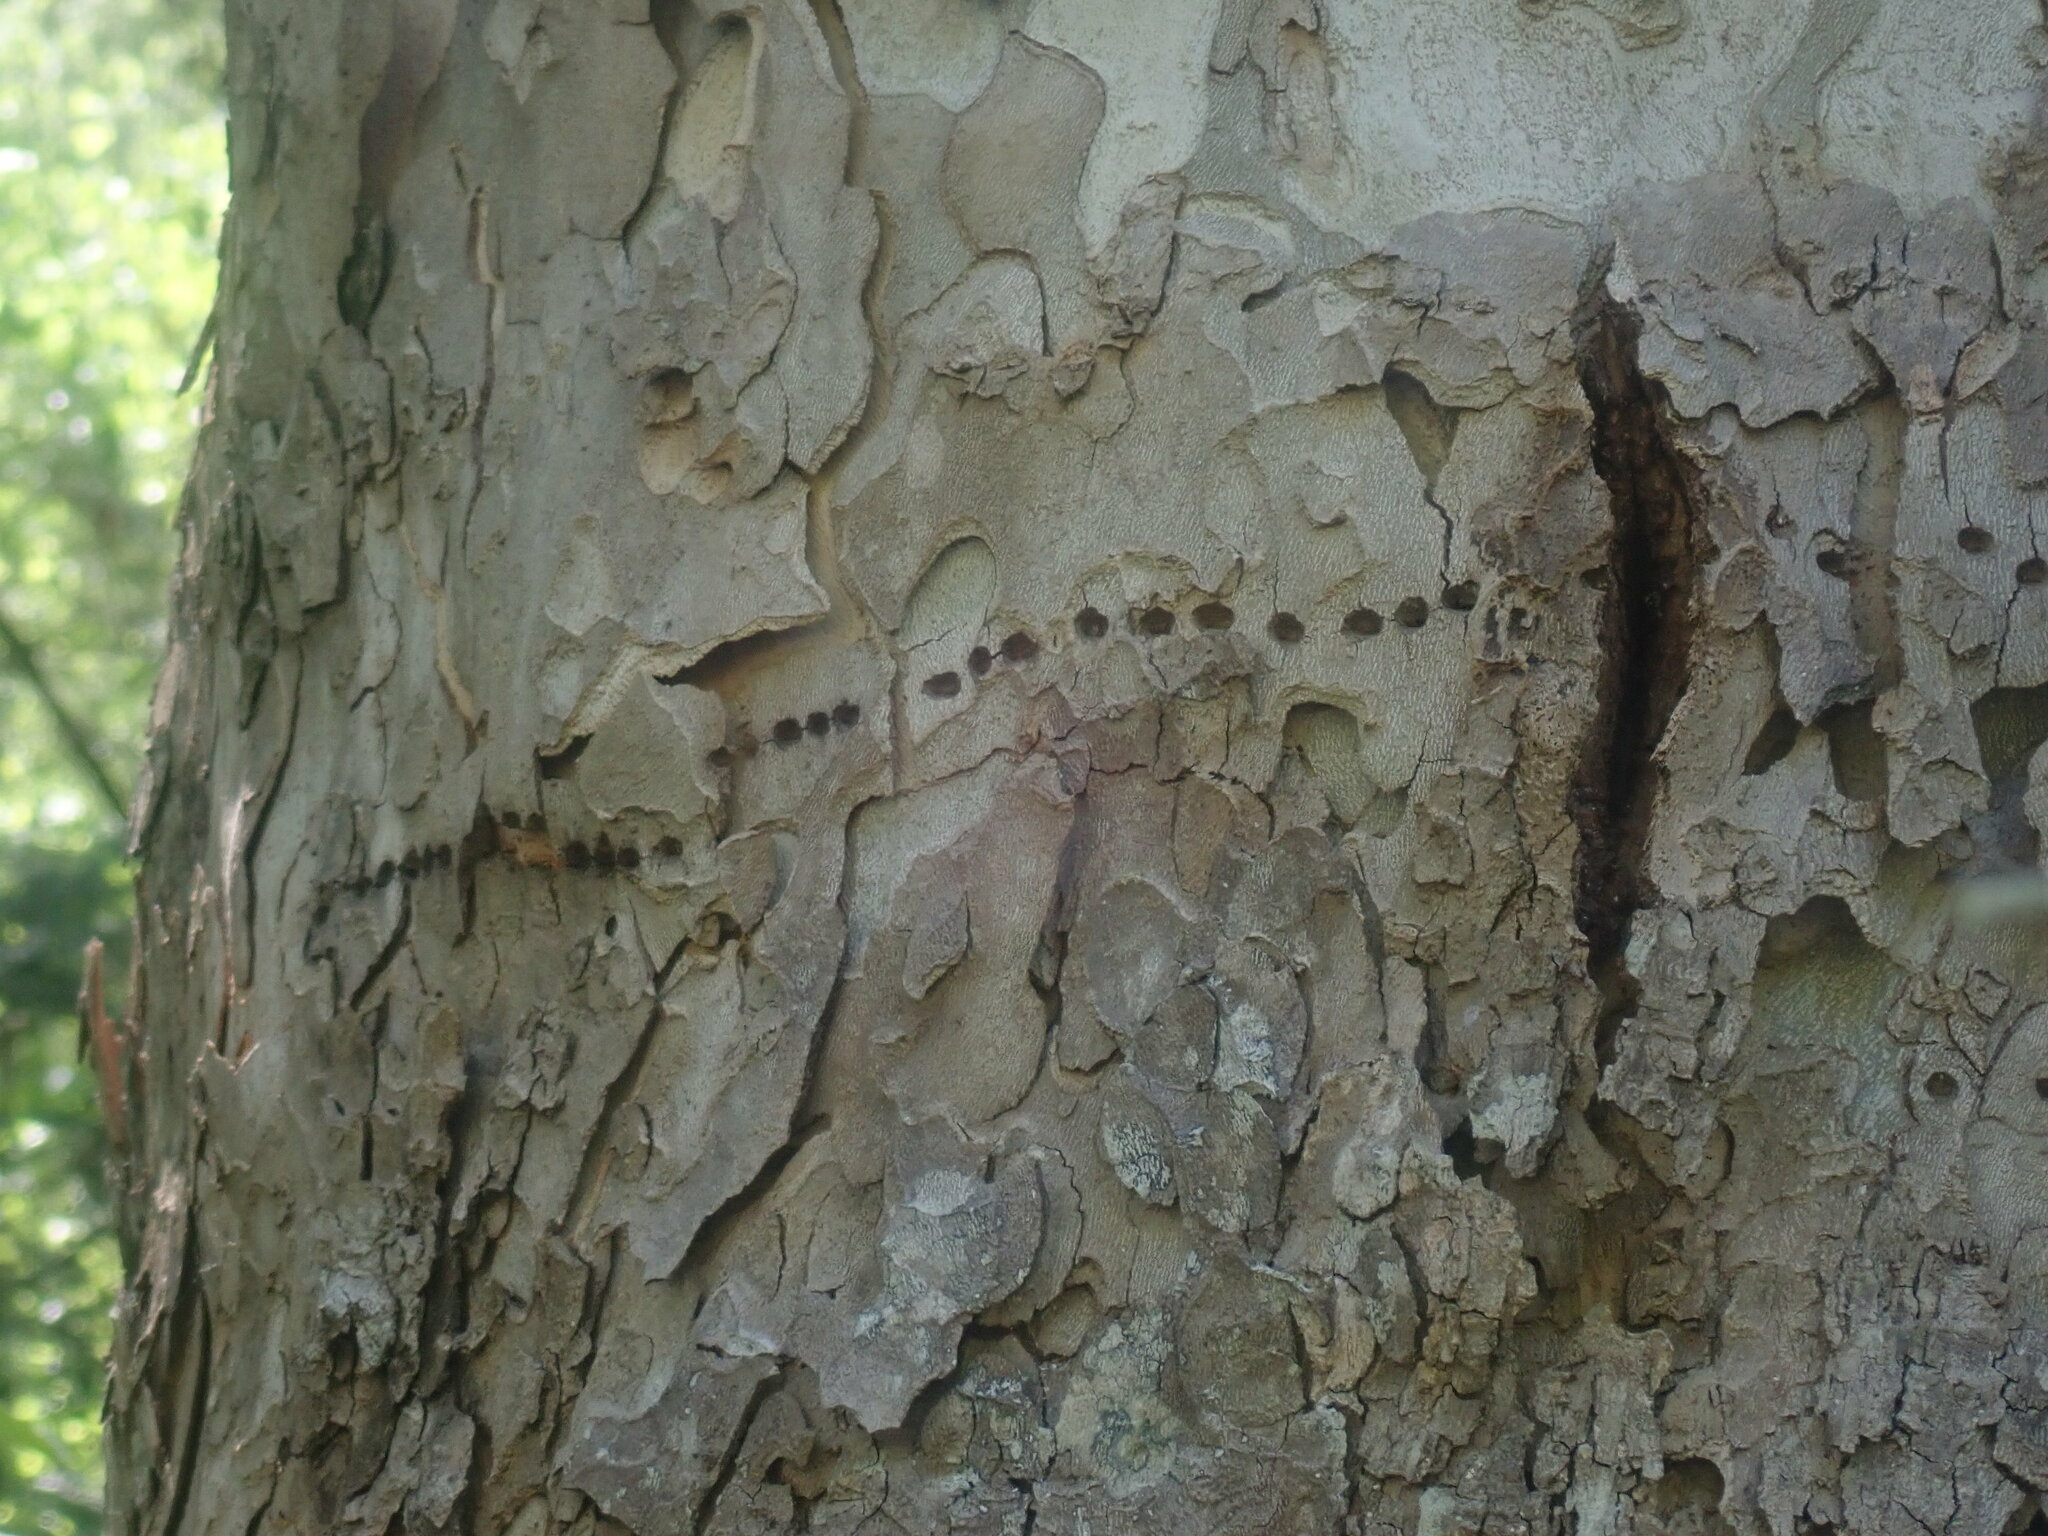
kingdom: Animalia
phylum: Chordata
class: Aves
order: Piciformes
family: Picidae
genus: Sphyrapicus
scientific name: Sphyrapicus varius
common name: Yellow-bellied sapsucker
